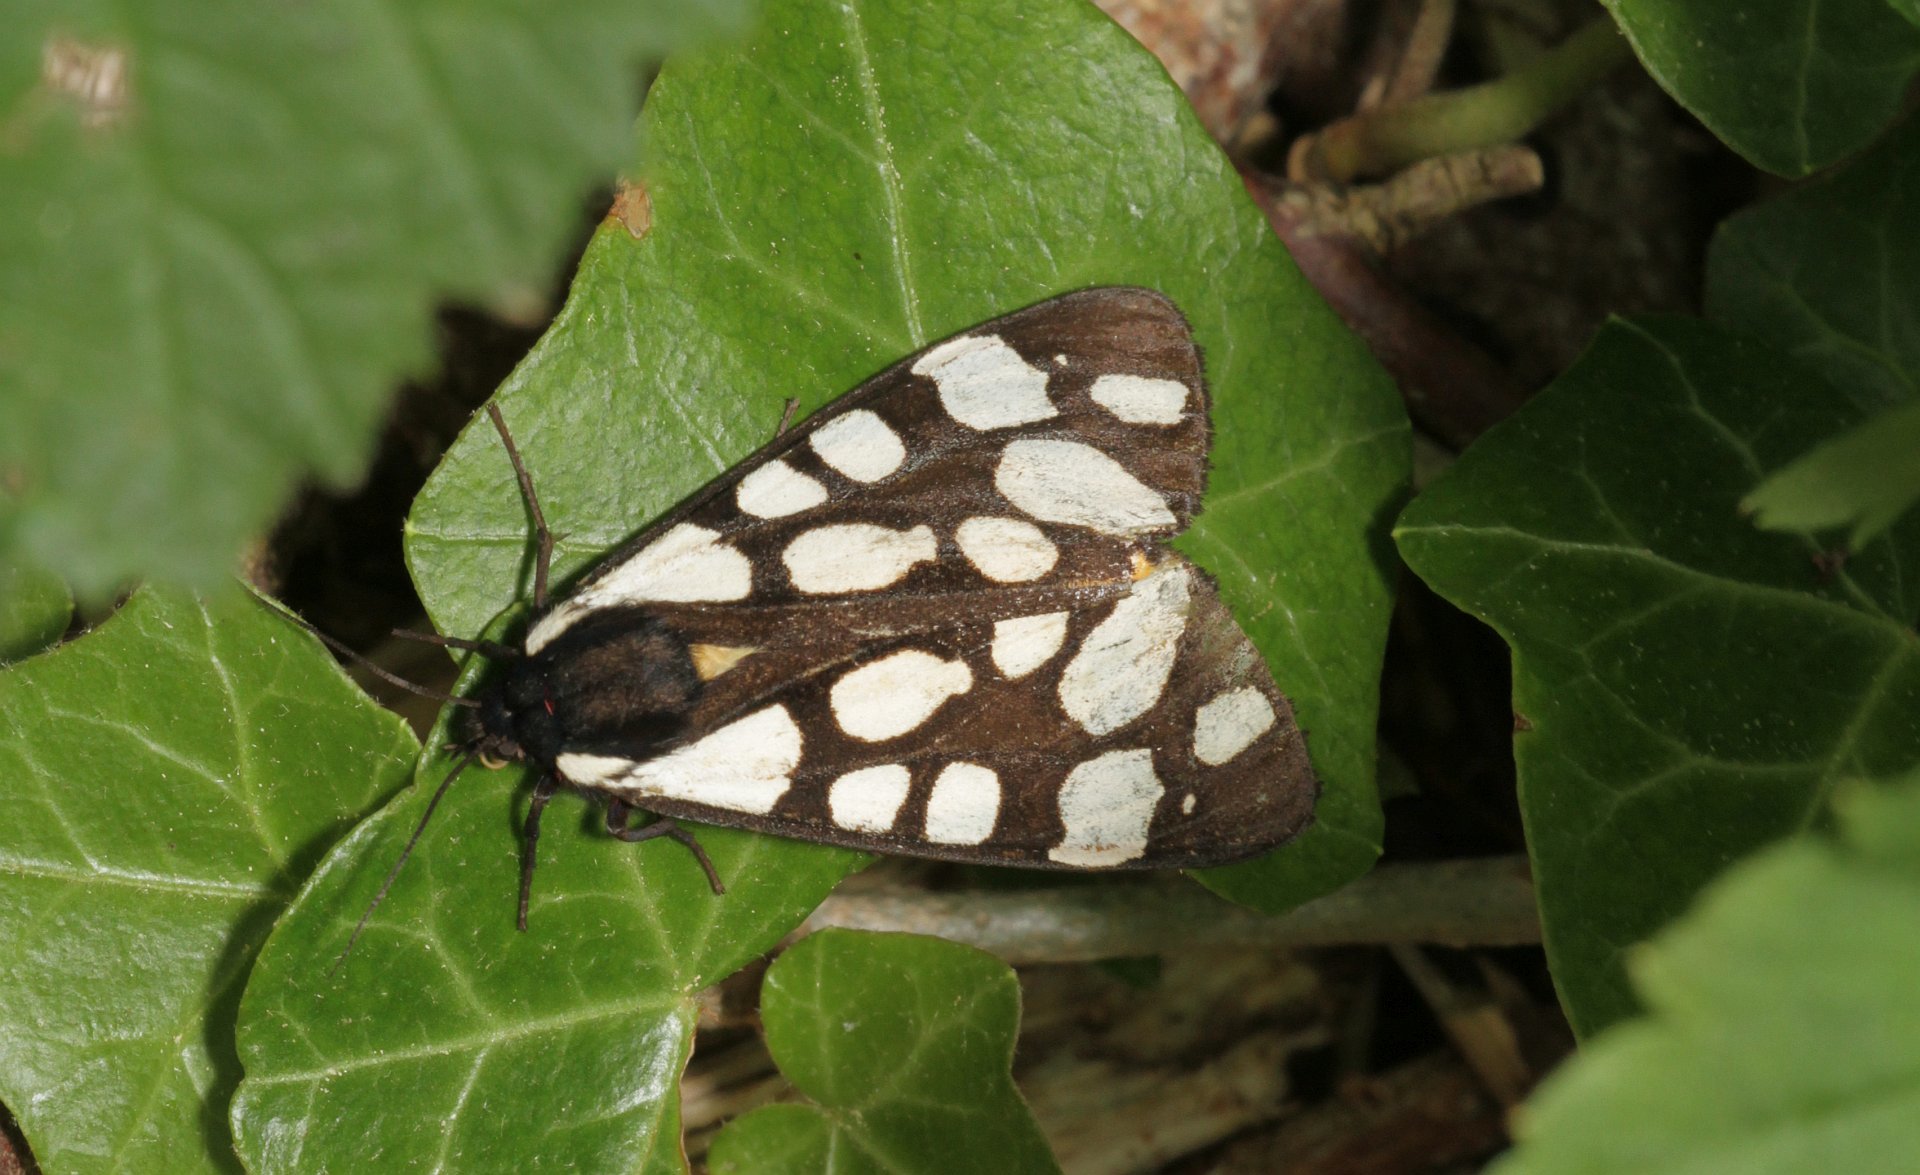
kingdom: Animalia
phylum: Arthropoda
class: Insecta
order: Lepidoptera
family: Erebidae
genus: Epicallia
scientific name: Epicallia villica
